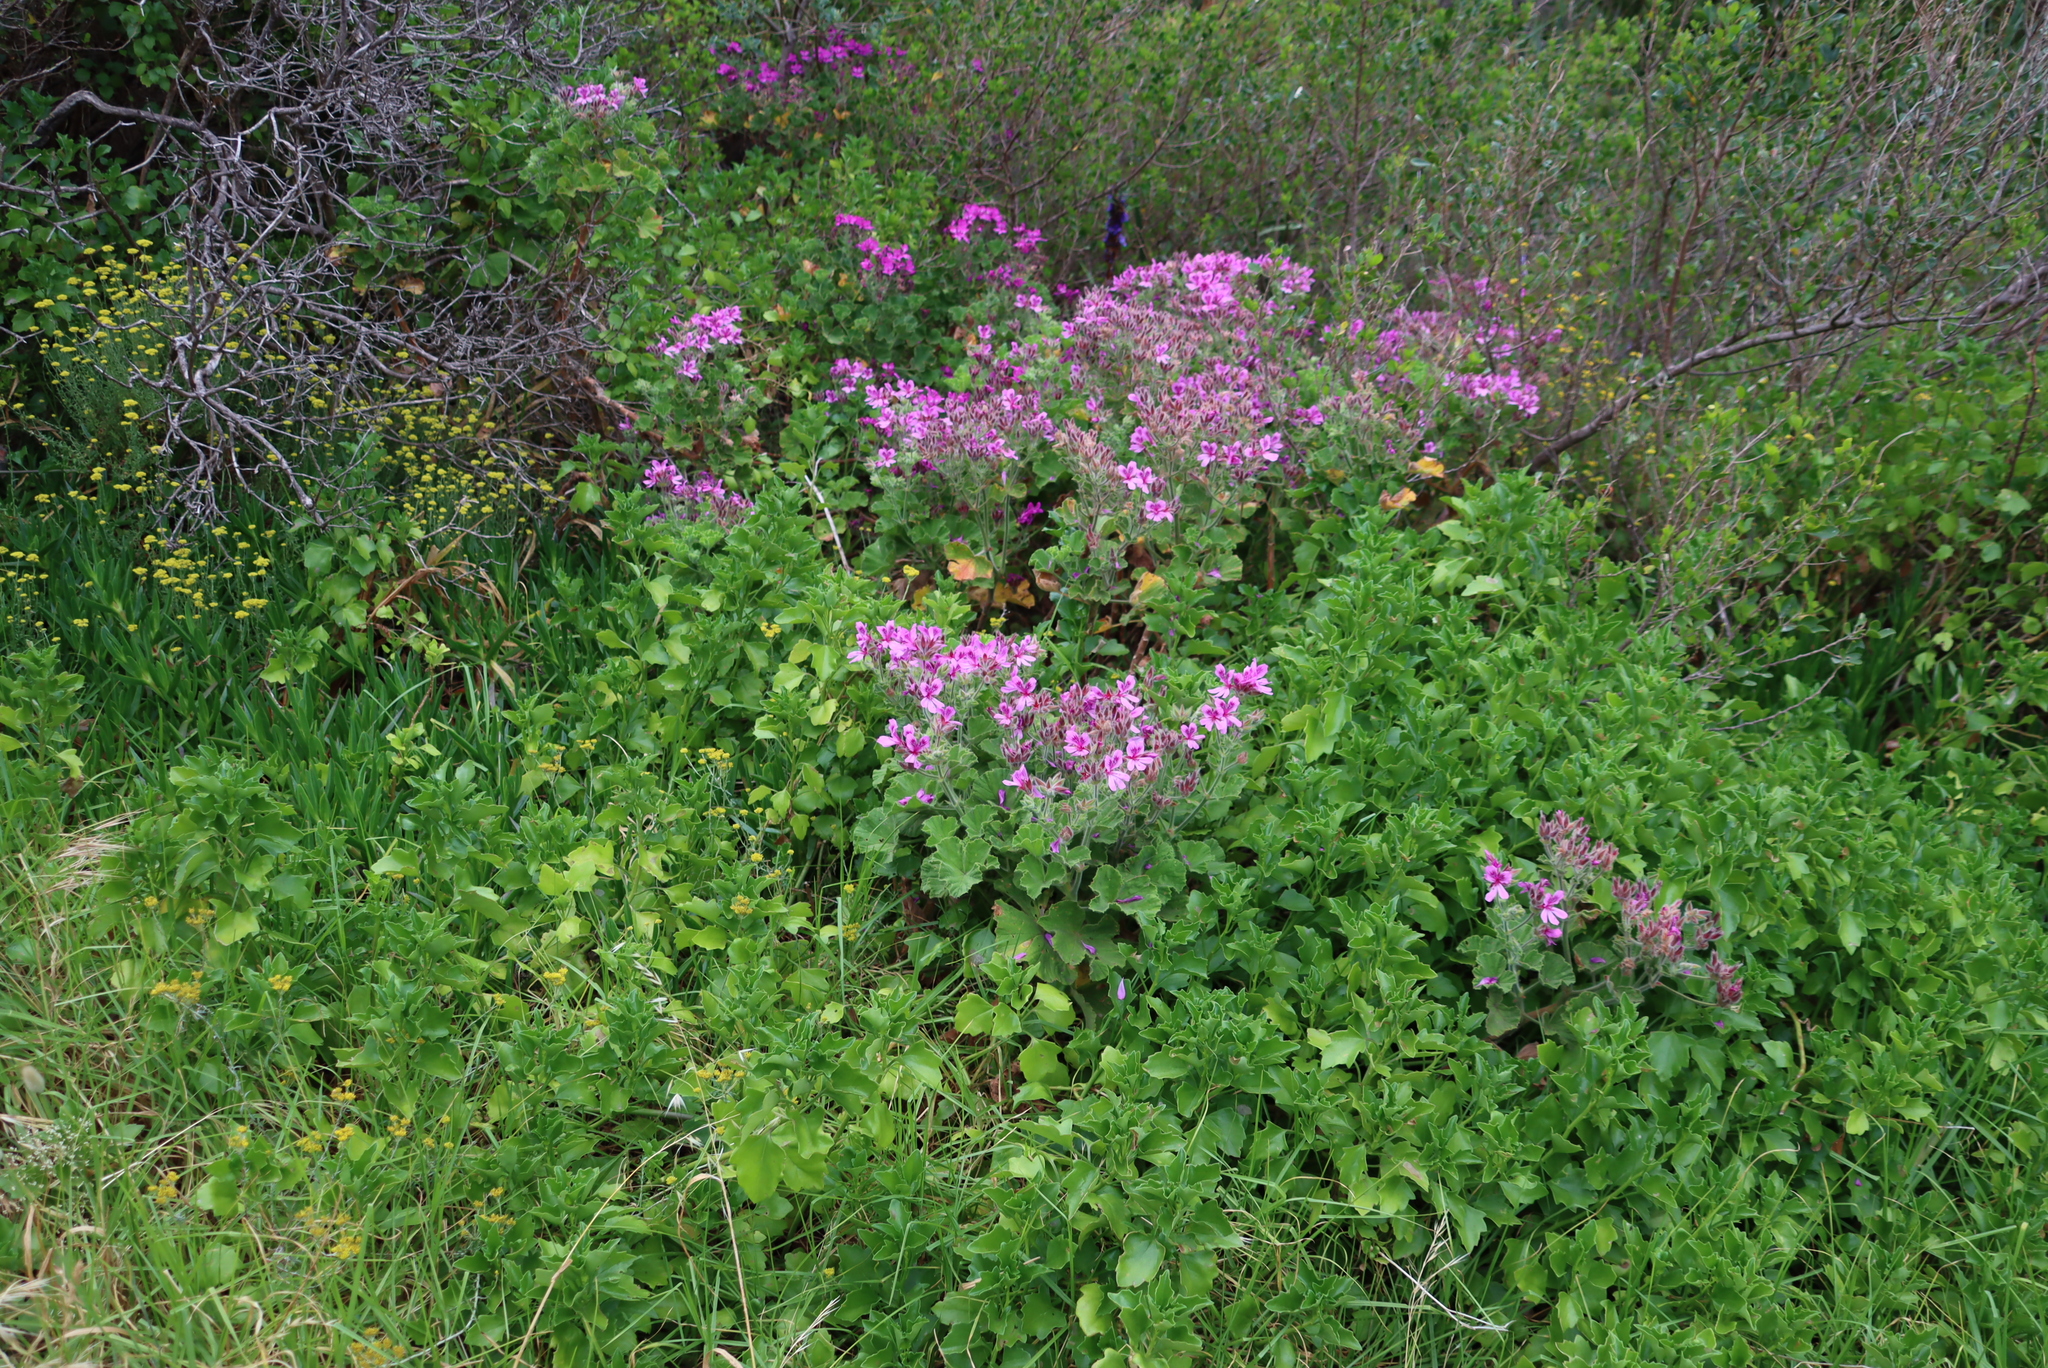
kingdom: Plantae
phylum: Tracheophyta
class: Magnoliopsida
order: Geraniales
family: Geraniaceae
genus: Pelargonium
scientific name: Pelargonium cucullatum
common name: Tree pelargonium
